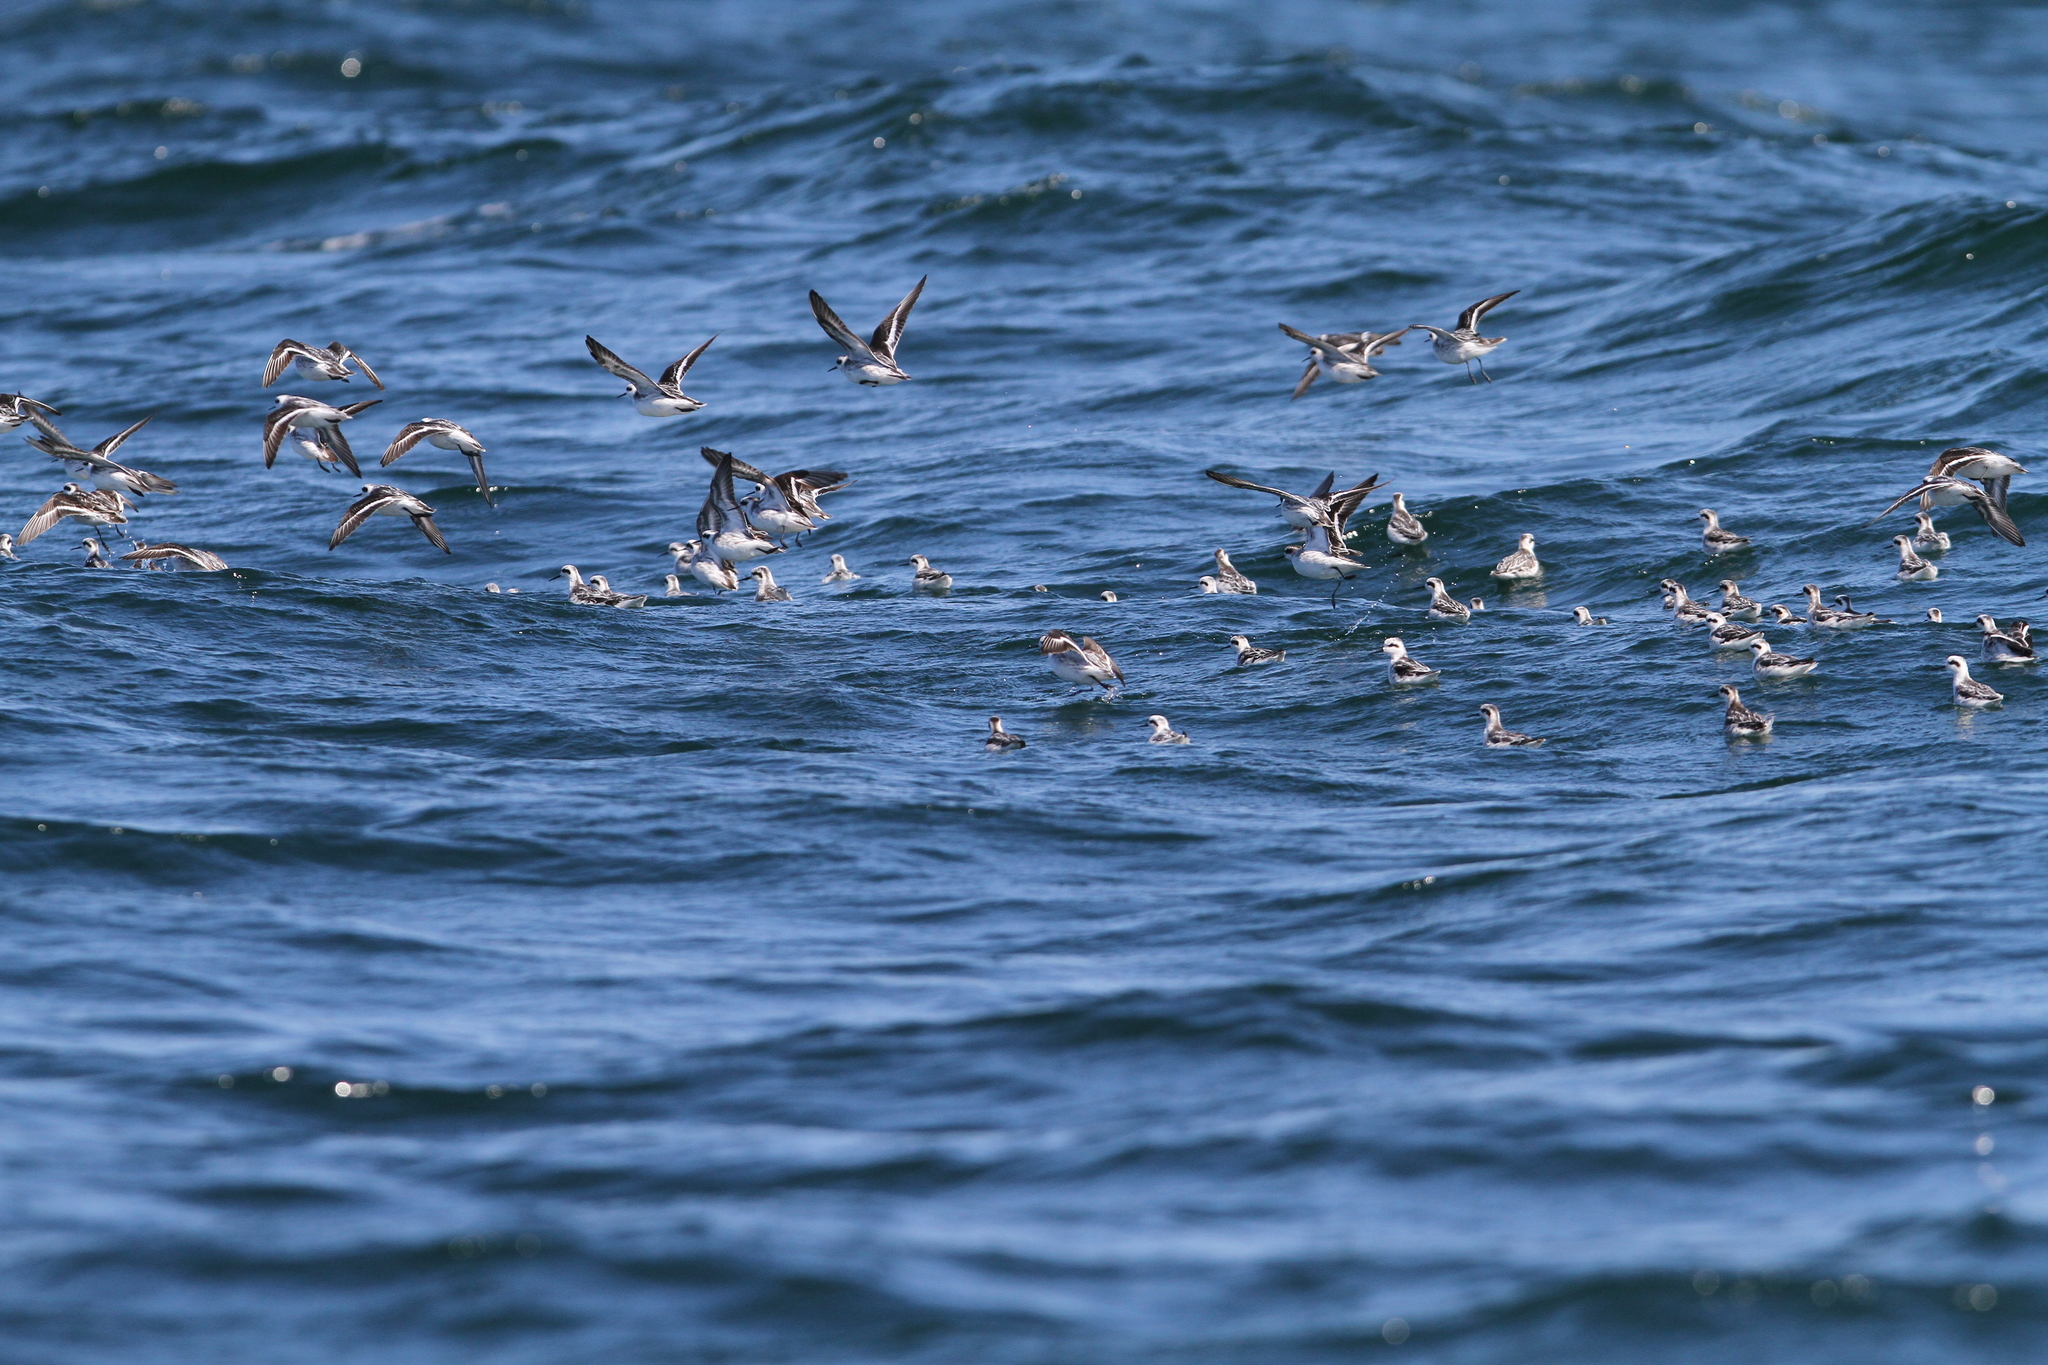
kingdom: Animalia
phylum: Chordata
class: Aves
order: Charadriiformes
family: Scolopacidae
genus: Phalaropus
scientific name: Phalaropus lobatus
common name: Red-necked phalarope
